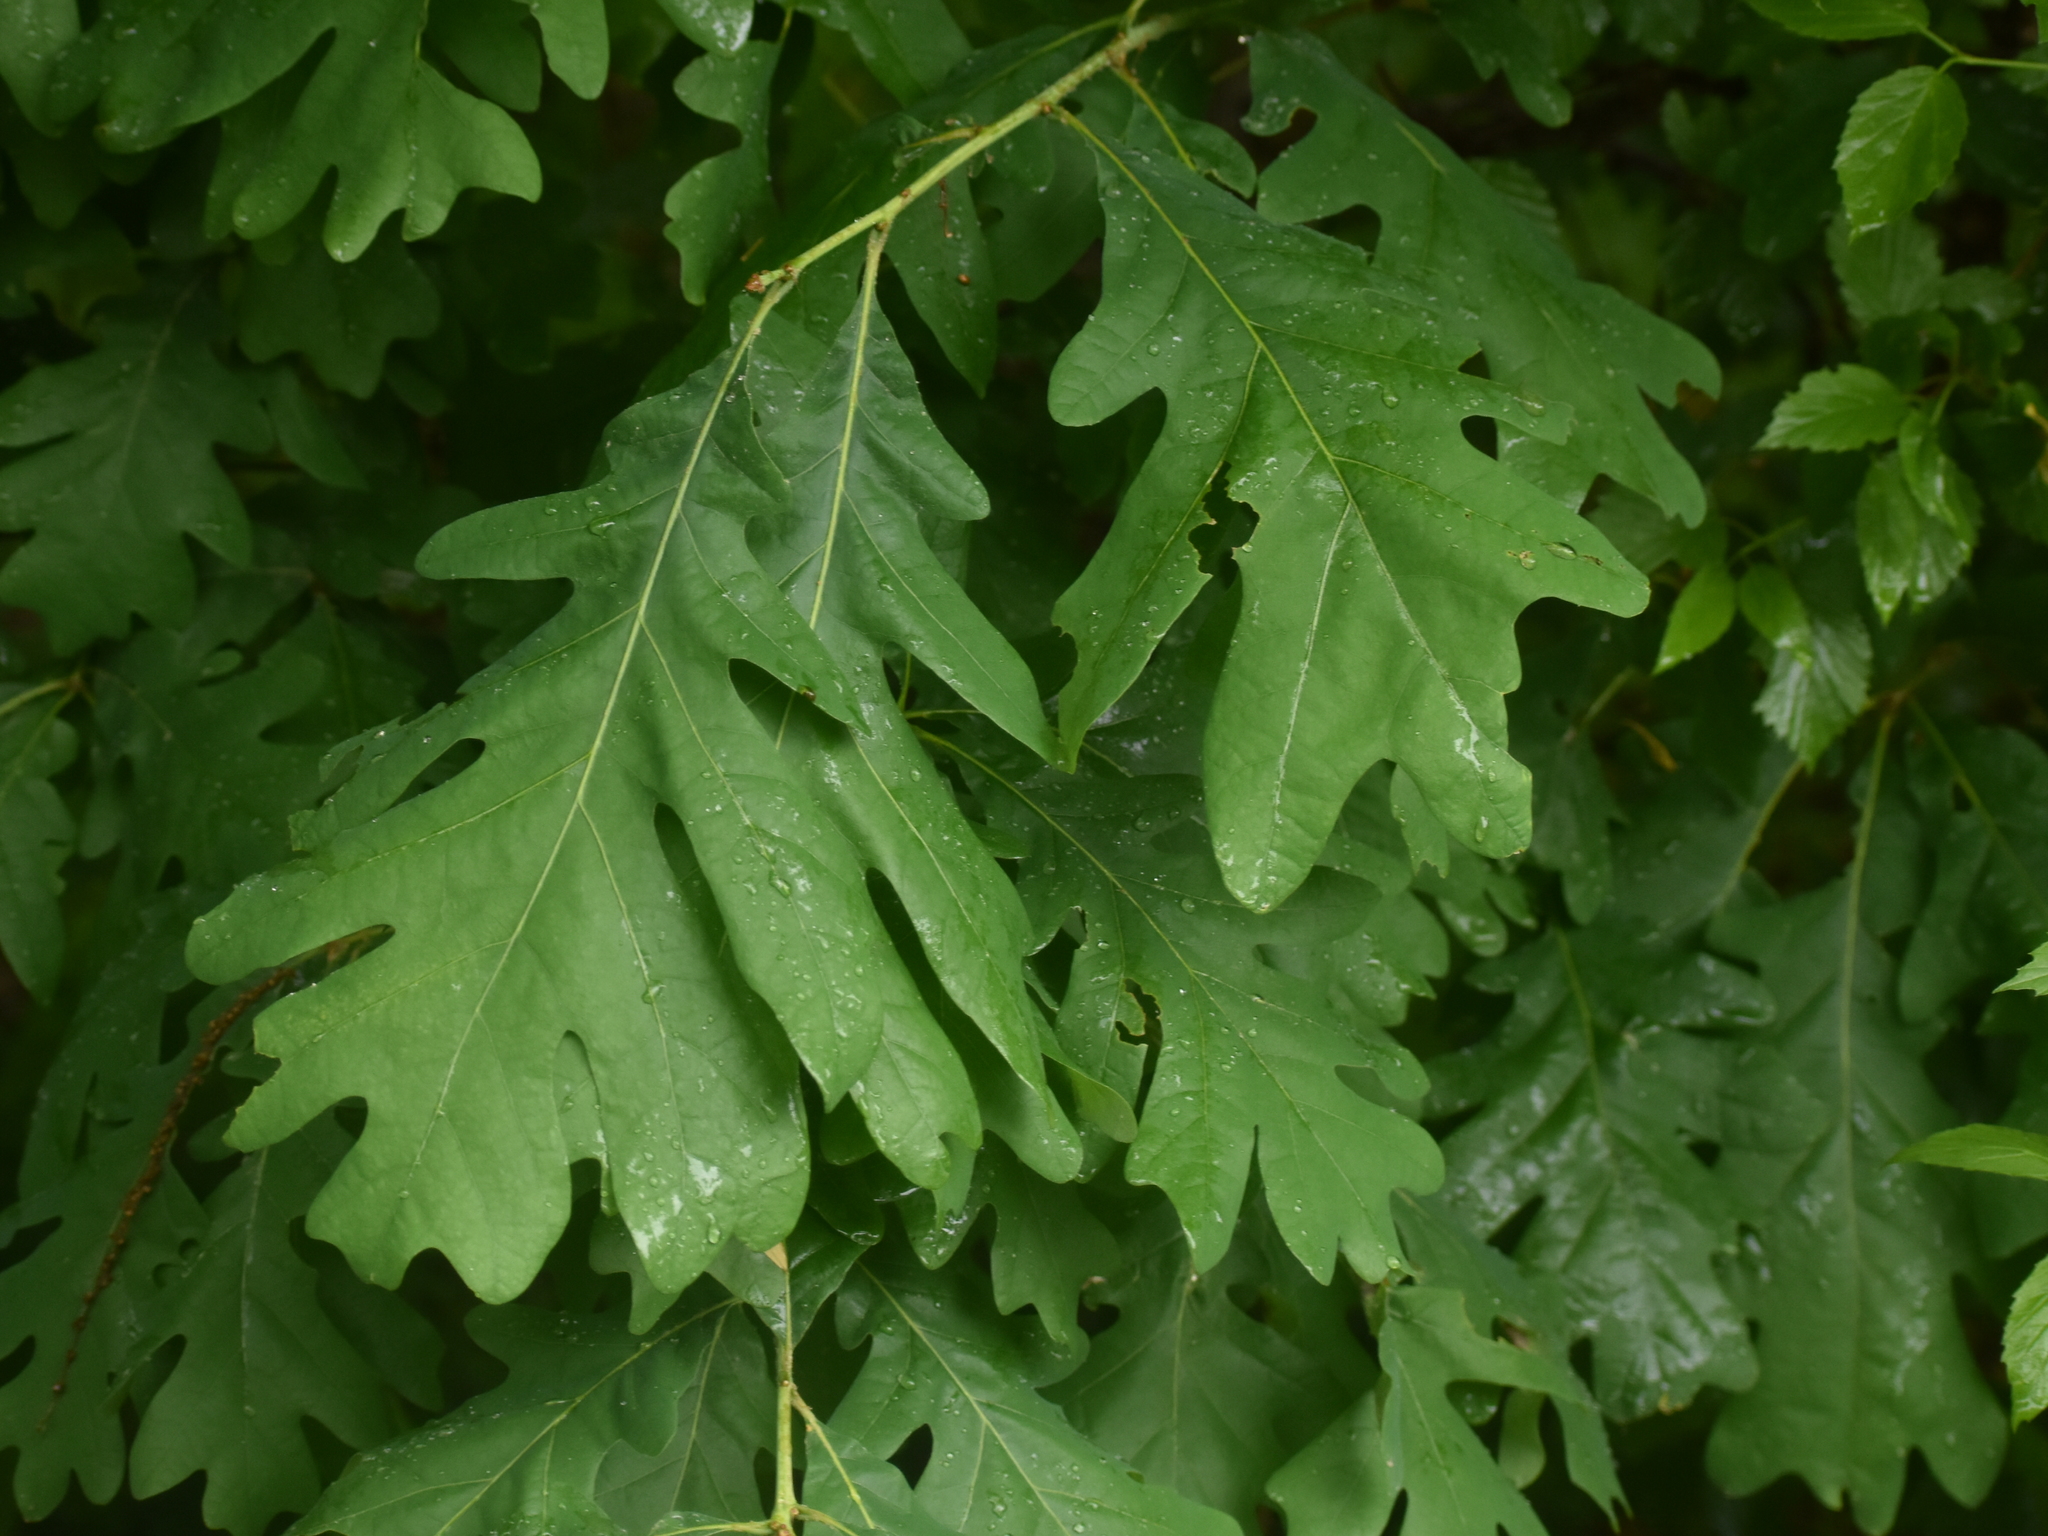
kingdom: Plantae
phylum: Tracheophyta
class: Magnoliopsida
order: Fagales
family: Fagaceae
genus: Quercus
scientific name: Quercus alba
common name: White oak
